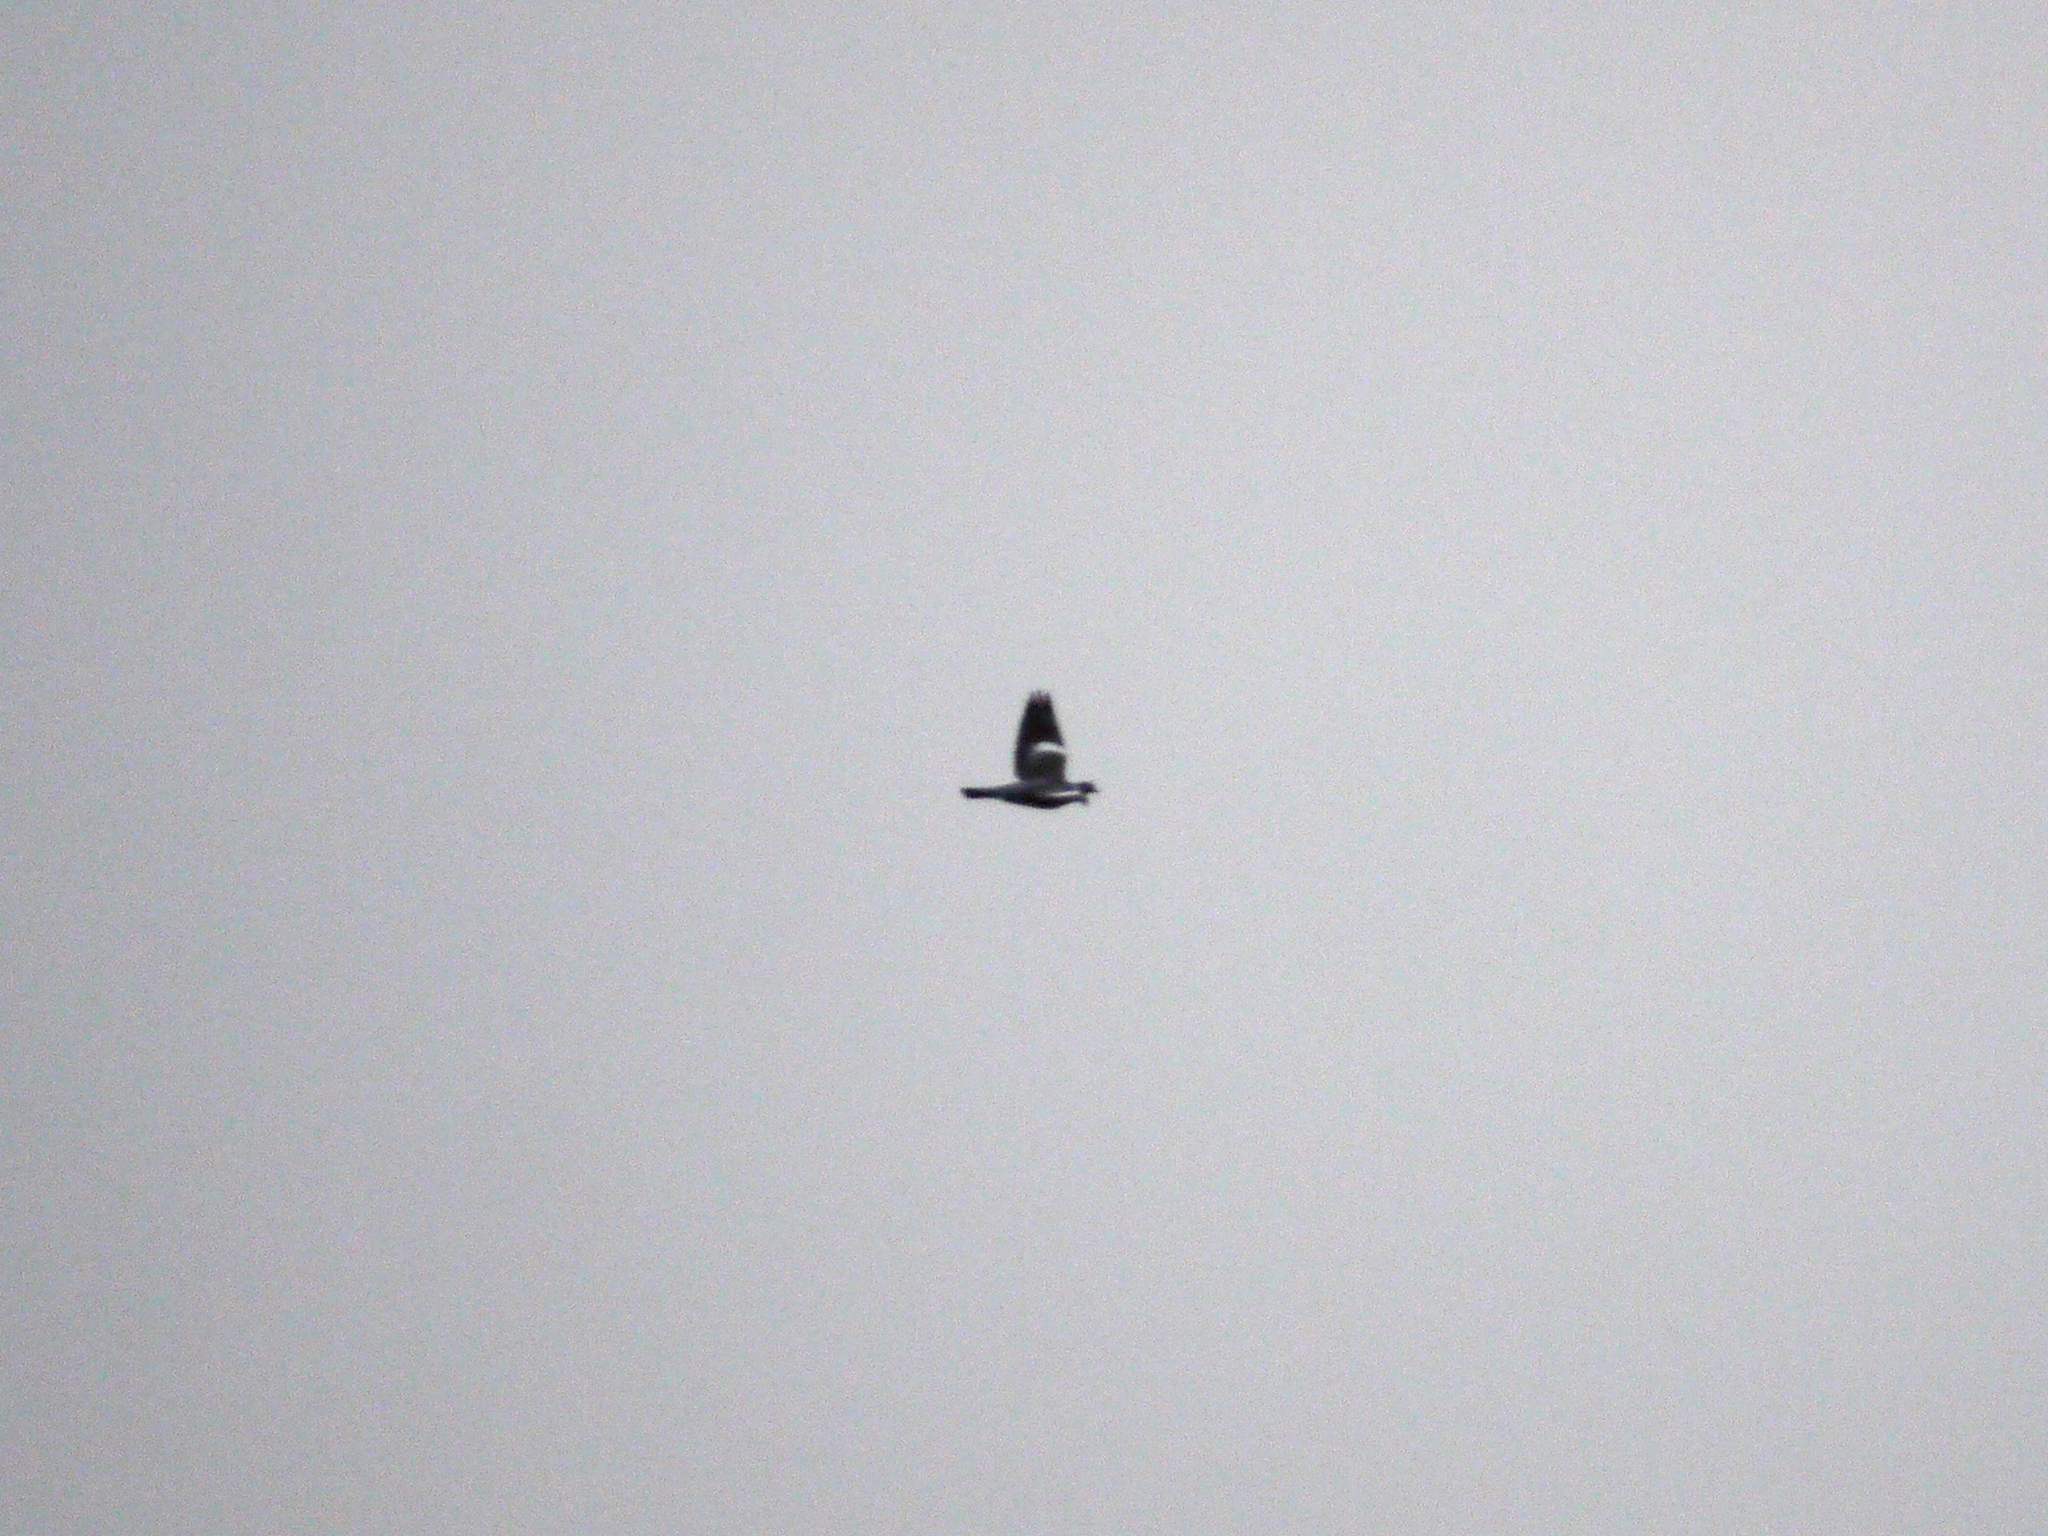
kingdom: Animalia
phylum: Chordata
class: Aves
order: Columbiformes
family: Columbidae
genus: Columba
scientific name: Columba palumbus
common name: Common wood pigeon
